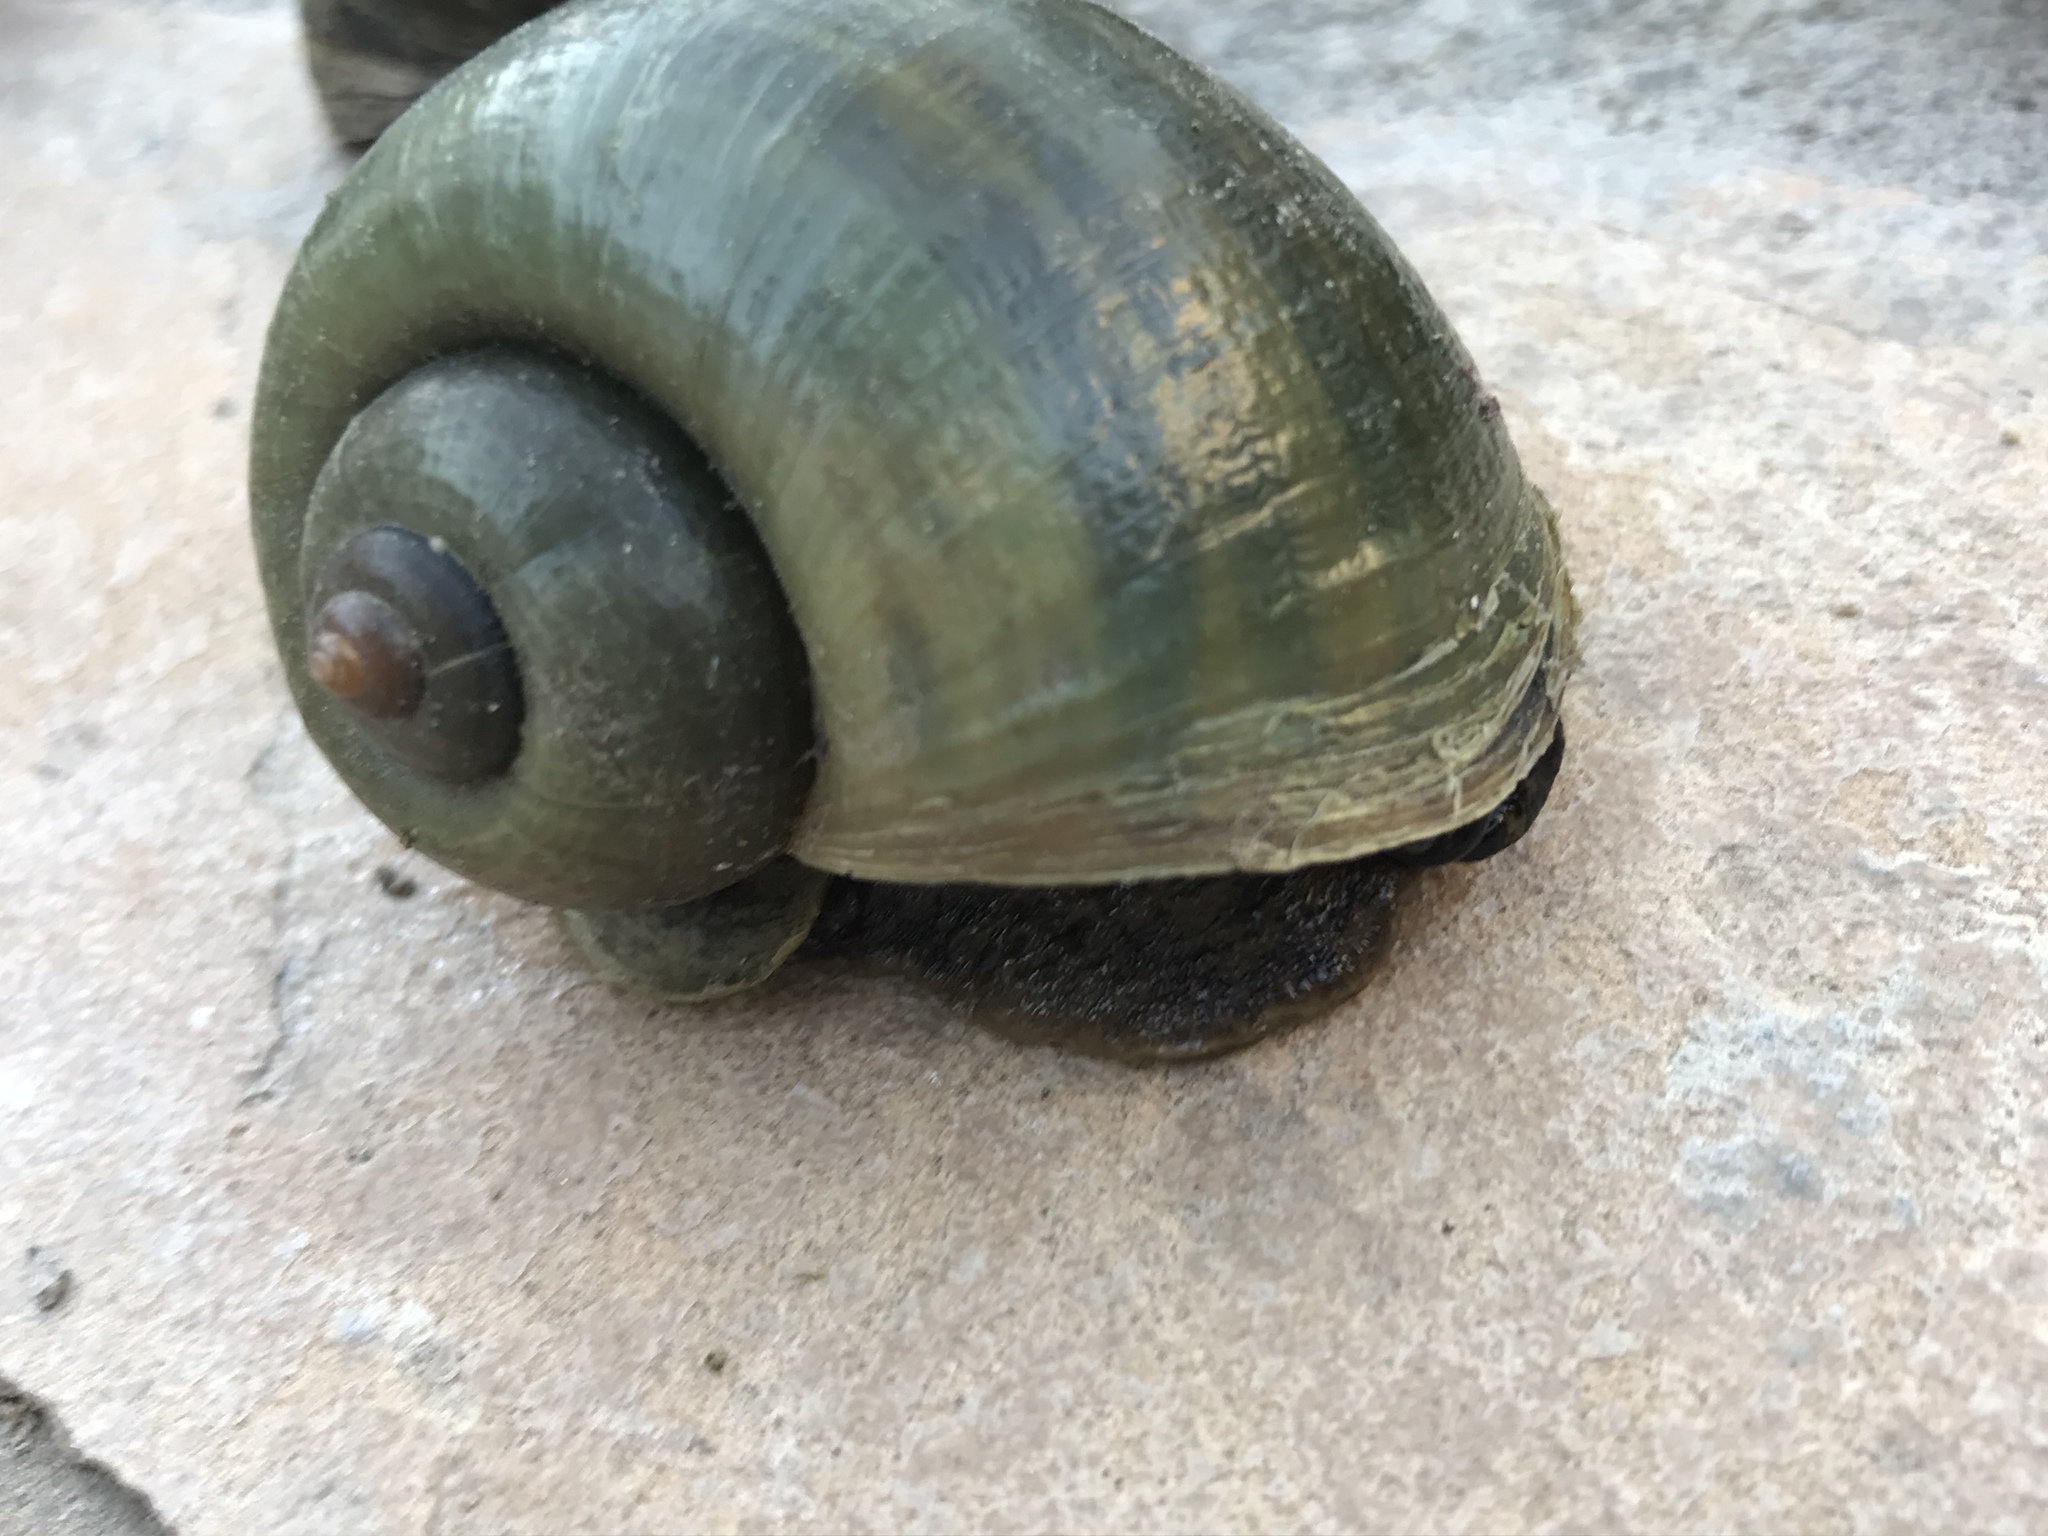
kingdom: Animalia
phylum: Mollusca
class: Gastropoda
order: Architaenioglossa
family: Ampullariidae
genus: Pomacea
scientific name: Pomacea canaliculata
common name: Channeled applesnail
